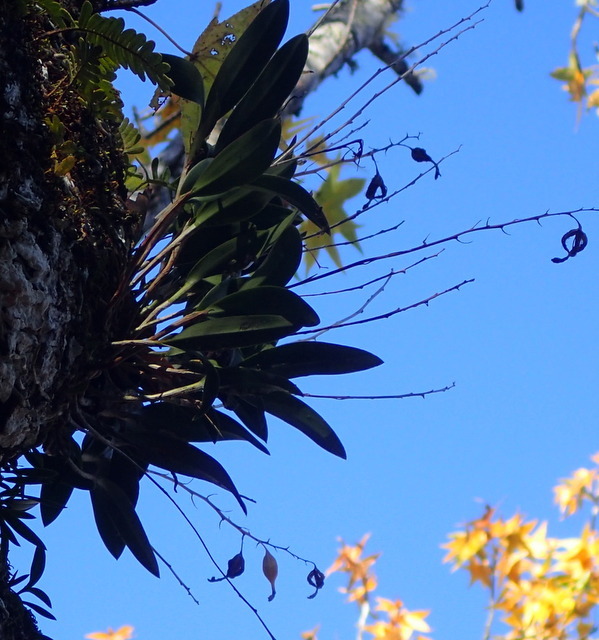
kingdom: Plantae
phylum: Tracheophyta
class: Liliopsida
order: Asparagales
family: Orchidaceae
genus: Epidendrum
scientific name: Epidendrum conopseum
